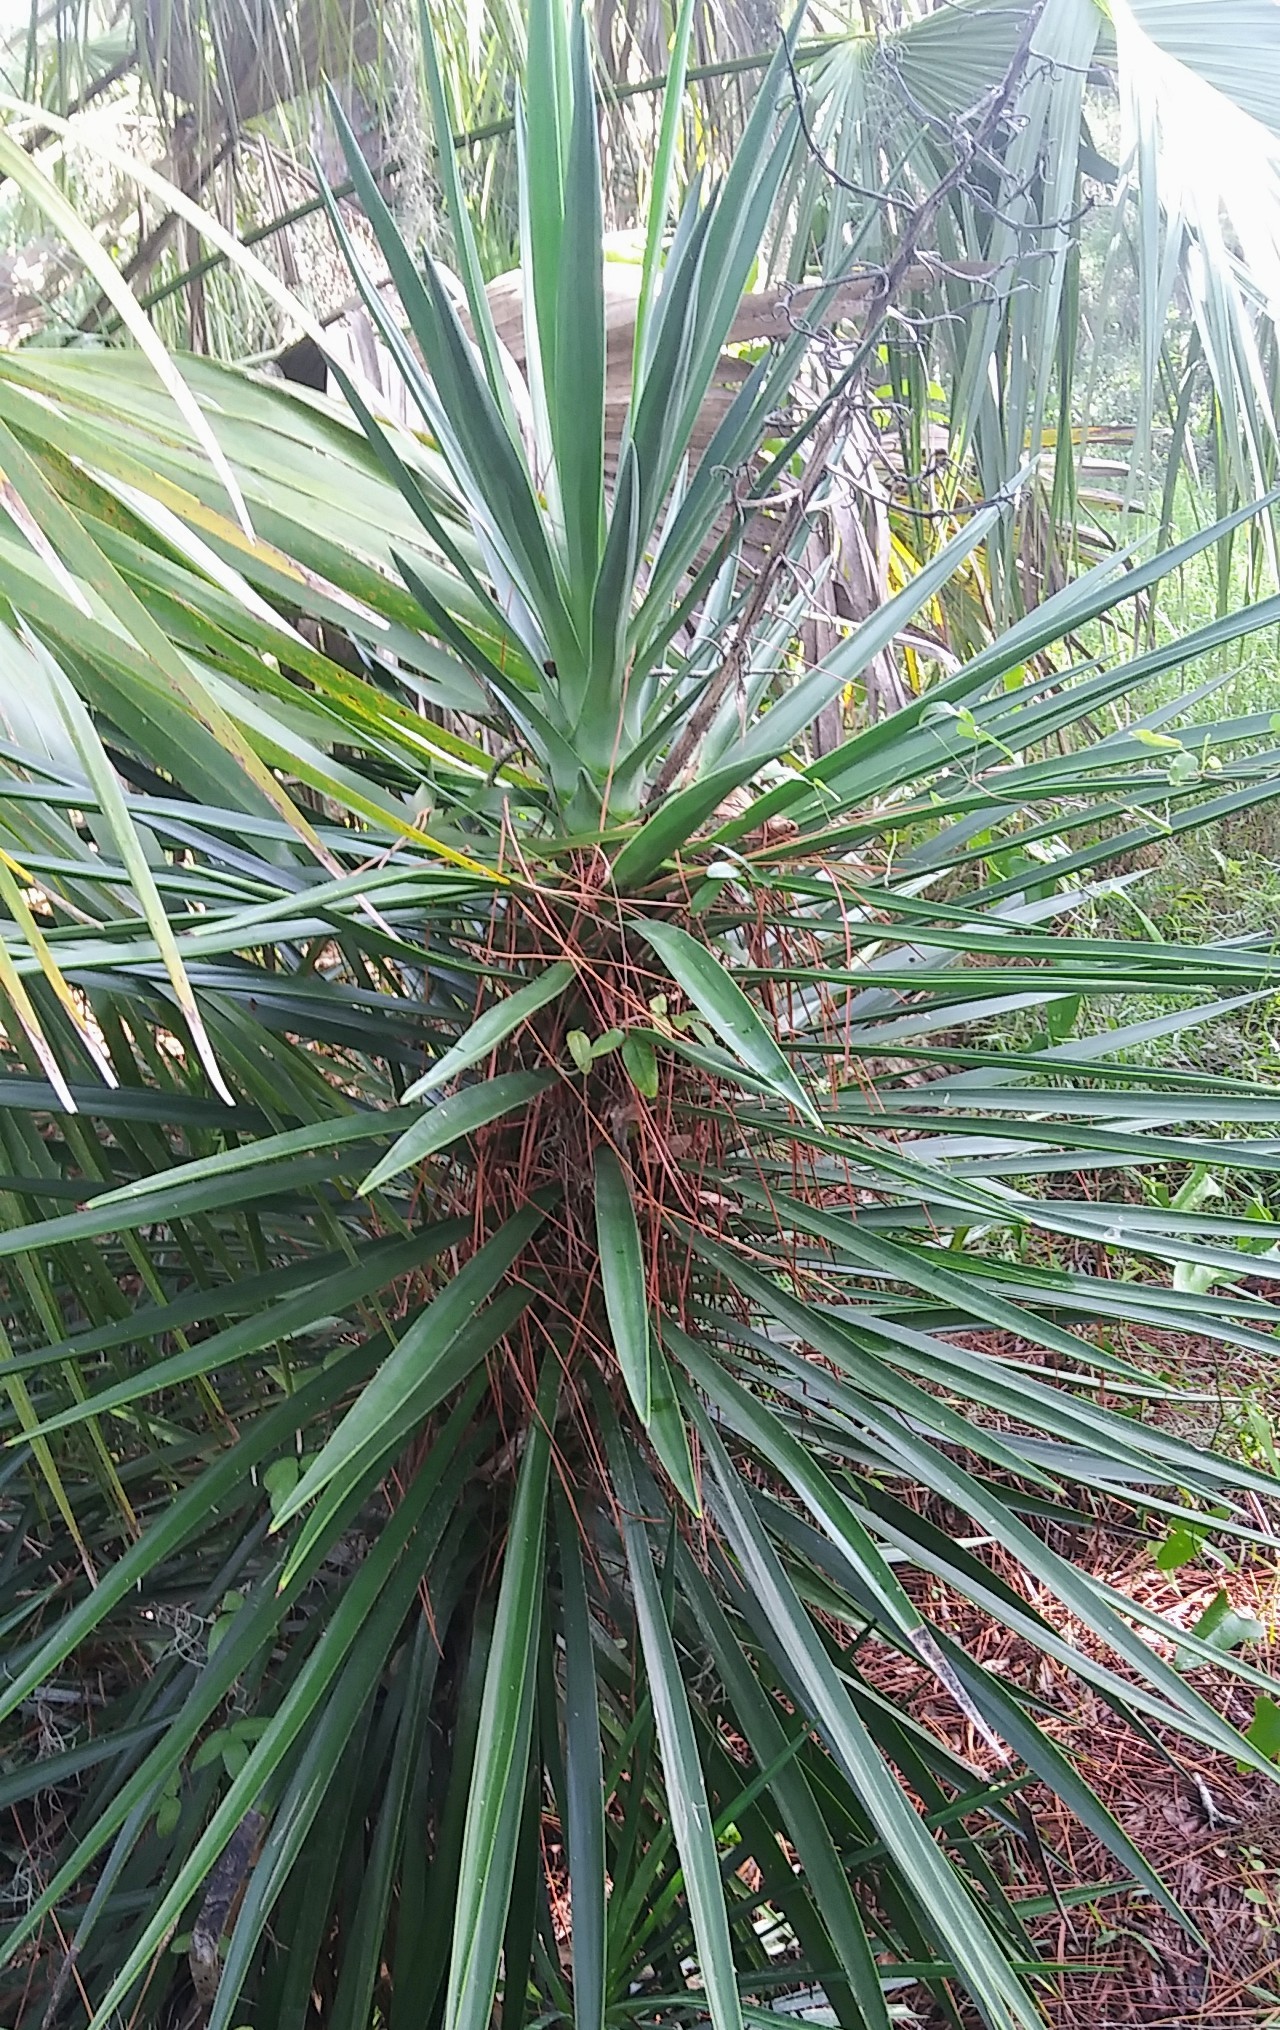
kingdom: Plantae
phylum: Tracheophyta
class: Liliopsida
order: Asparagales
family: Asparagaceae
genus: Yucca
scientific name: Yucca aloifolia
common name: Aloe yucca
